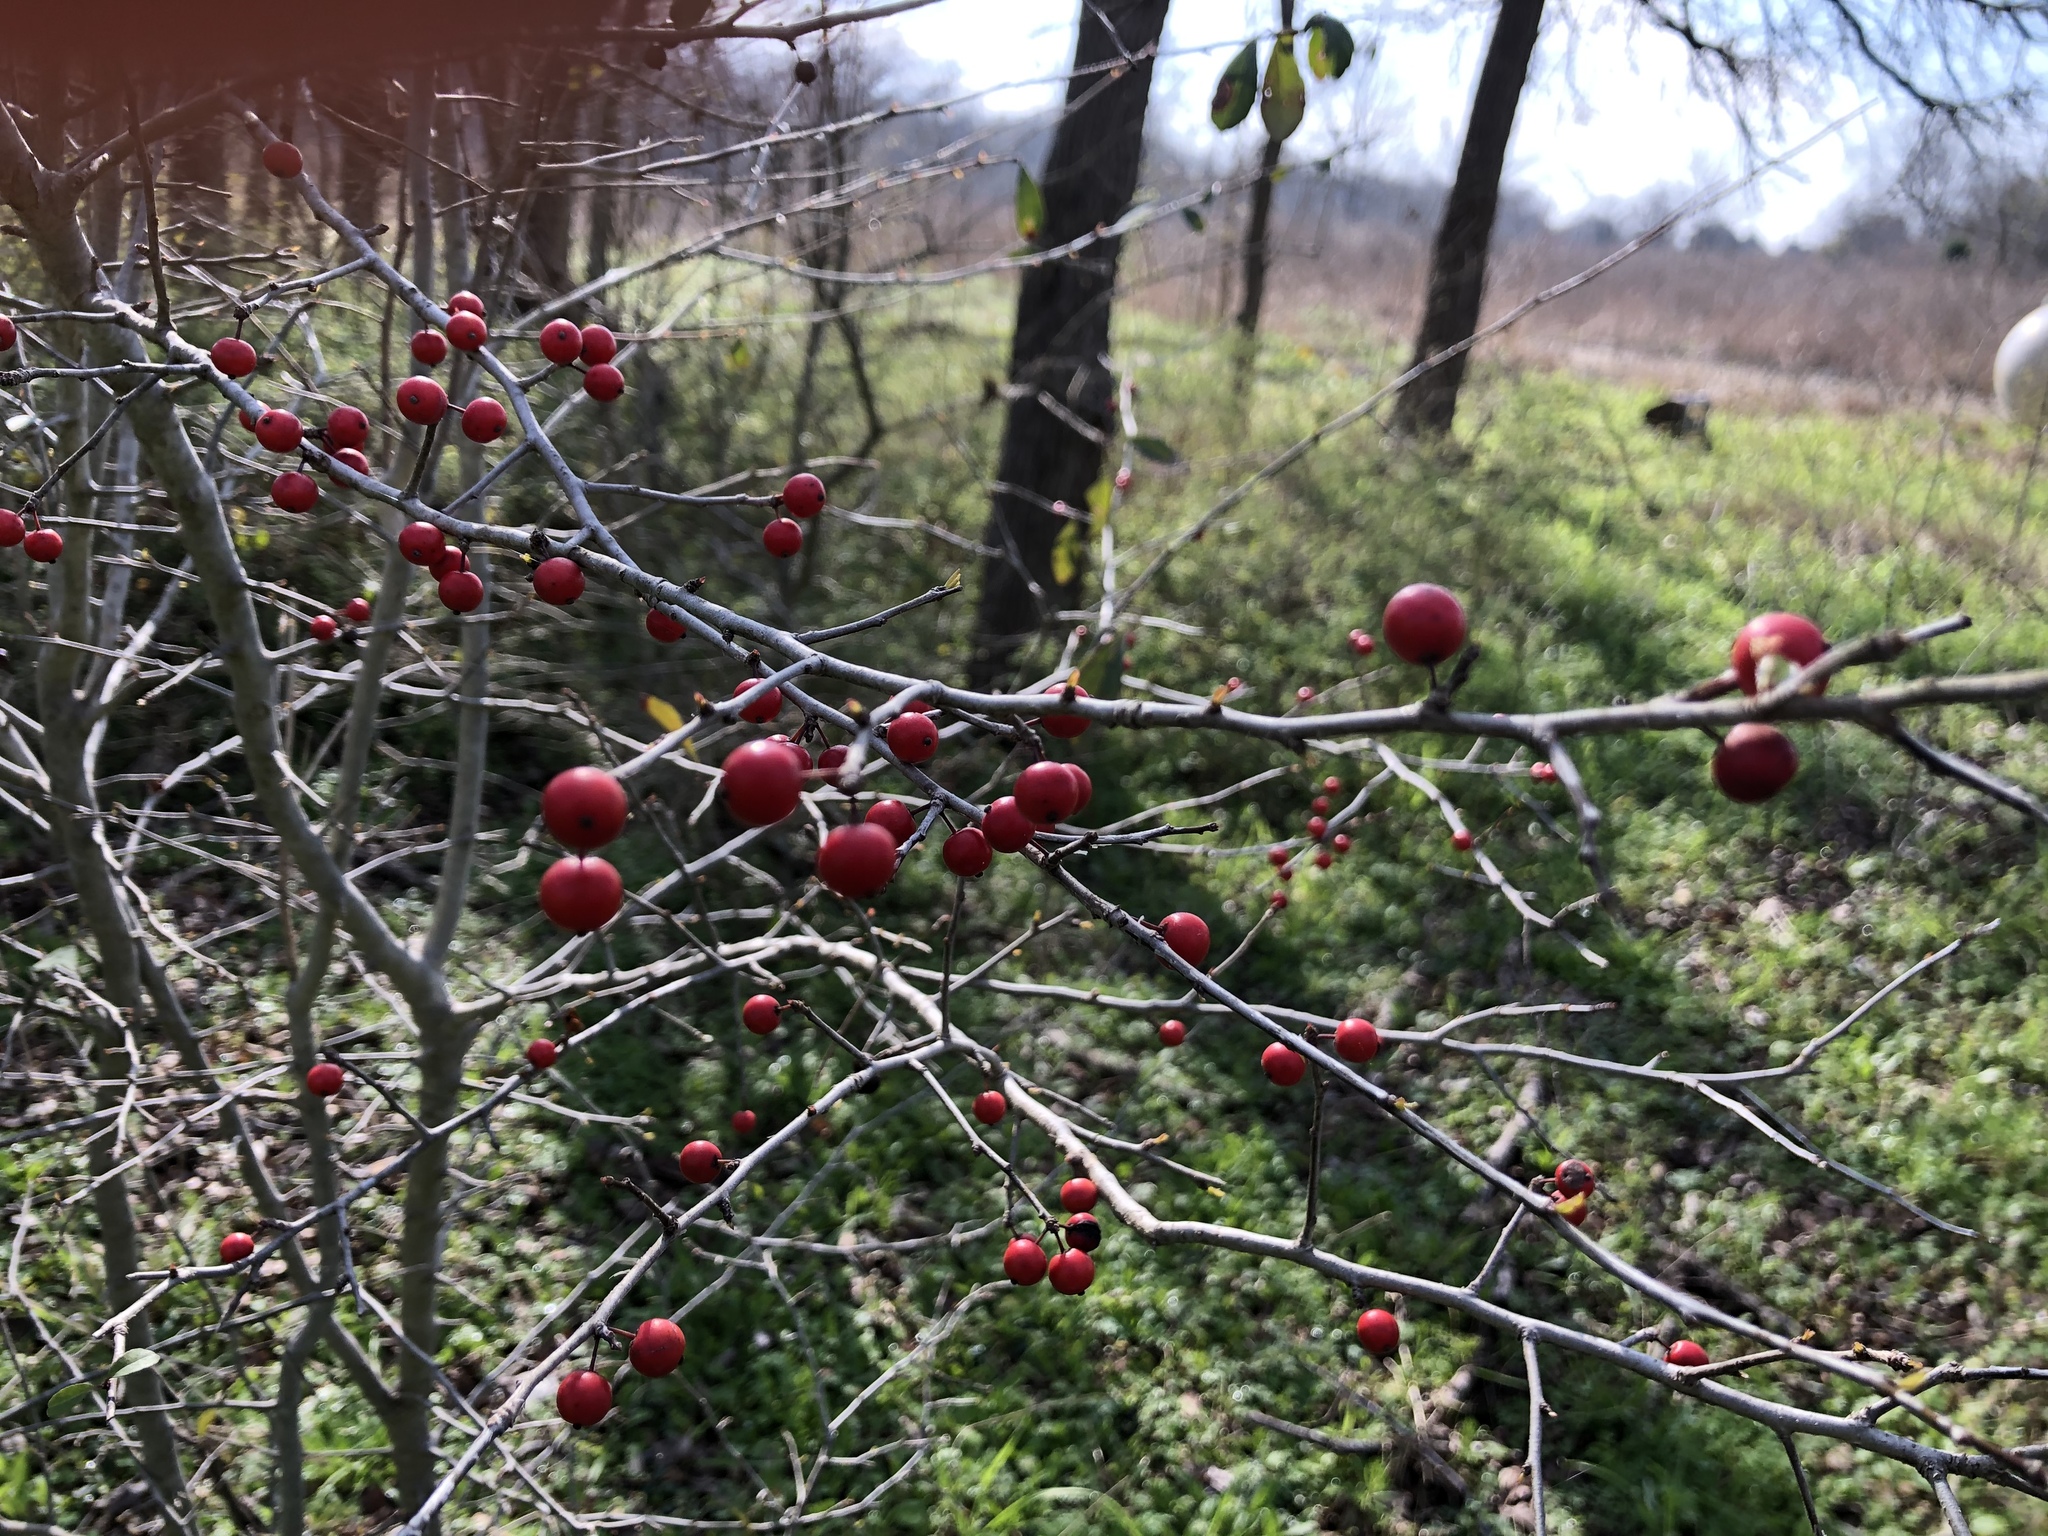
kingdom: Plantae
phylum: Tracheophyta
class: Magnoliopsida
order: Aquifoliales
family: Aquifoliaceae
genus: Ilex
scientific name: Ilex decidua
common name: Possum-haw
